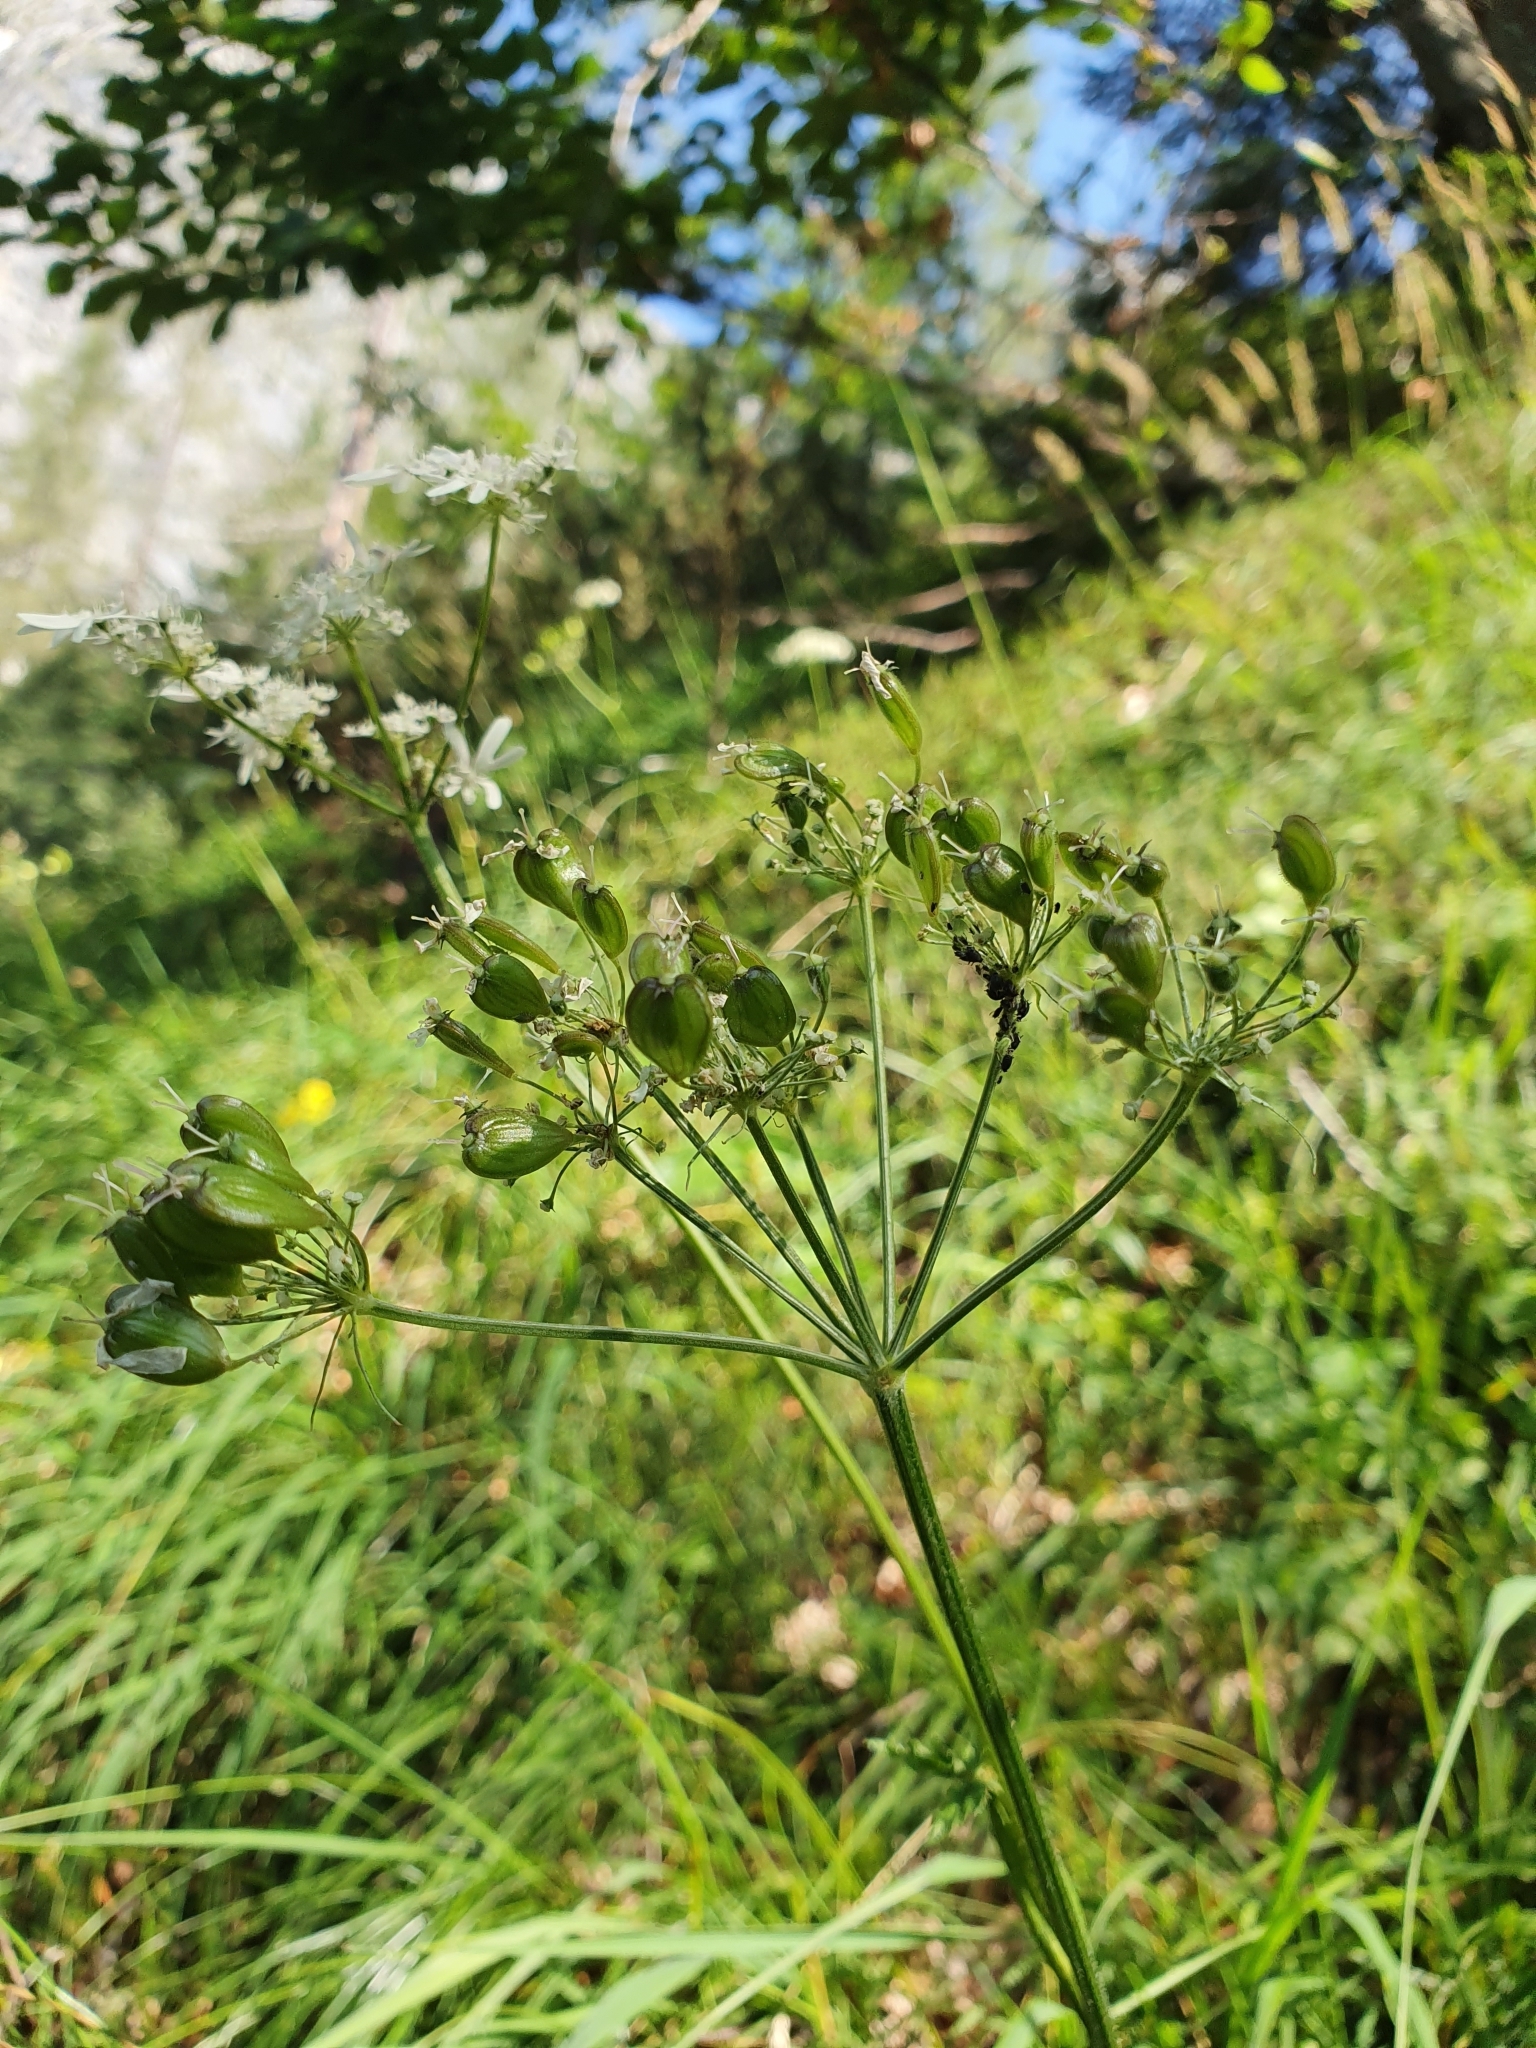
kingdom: Plantae
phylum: Tracheophyta
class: Magnoliopsida
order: Apiales
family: Apiaceae
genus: Heracleum
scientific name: Heracleum austriacum
